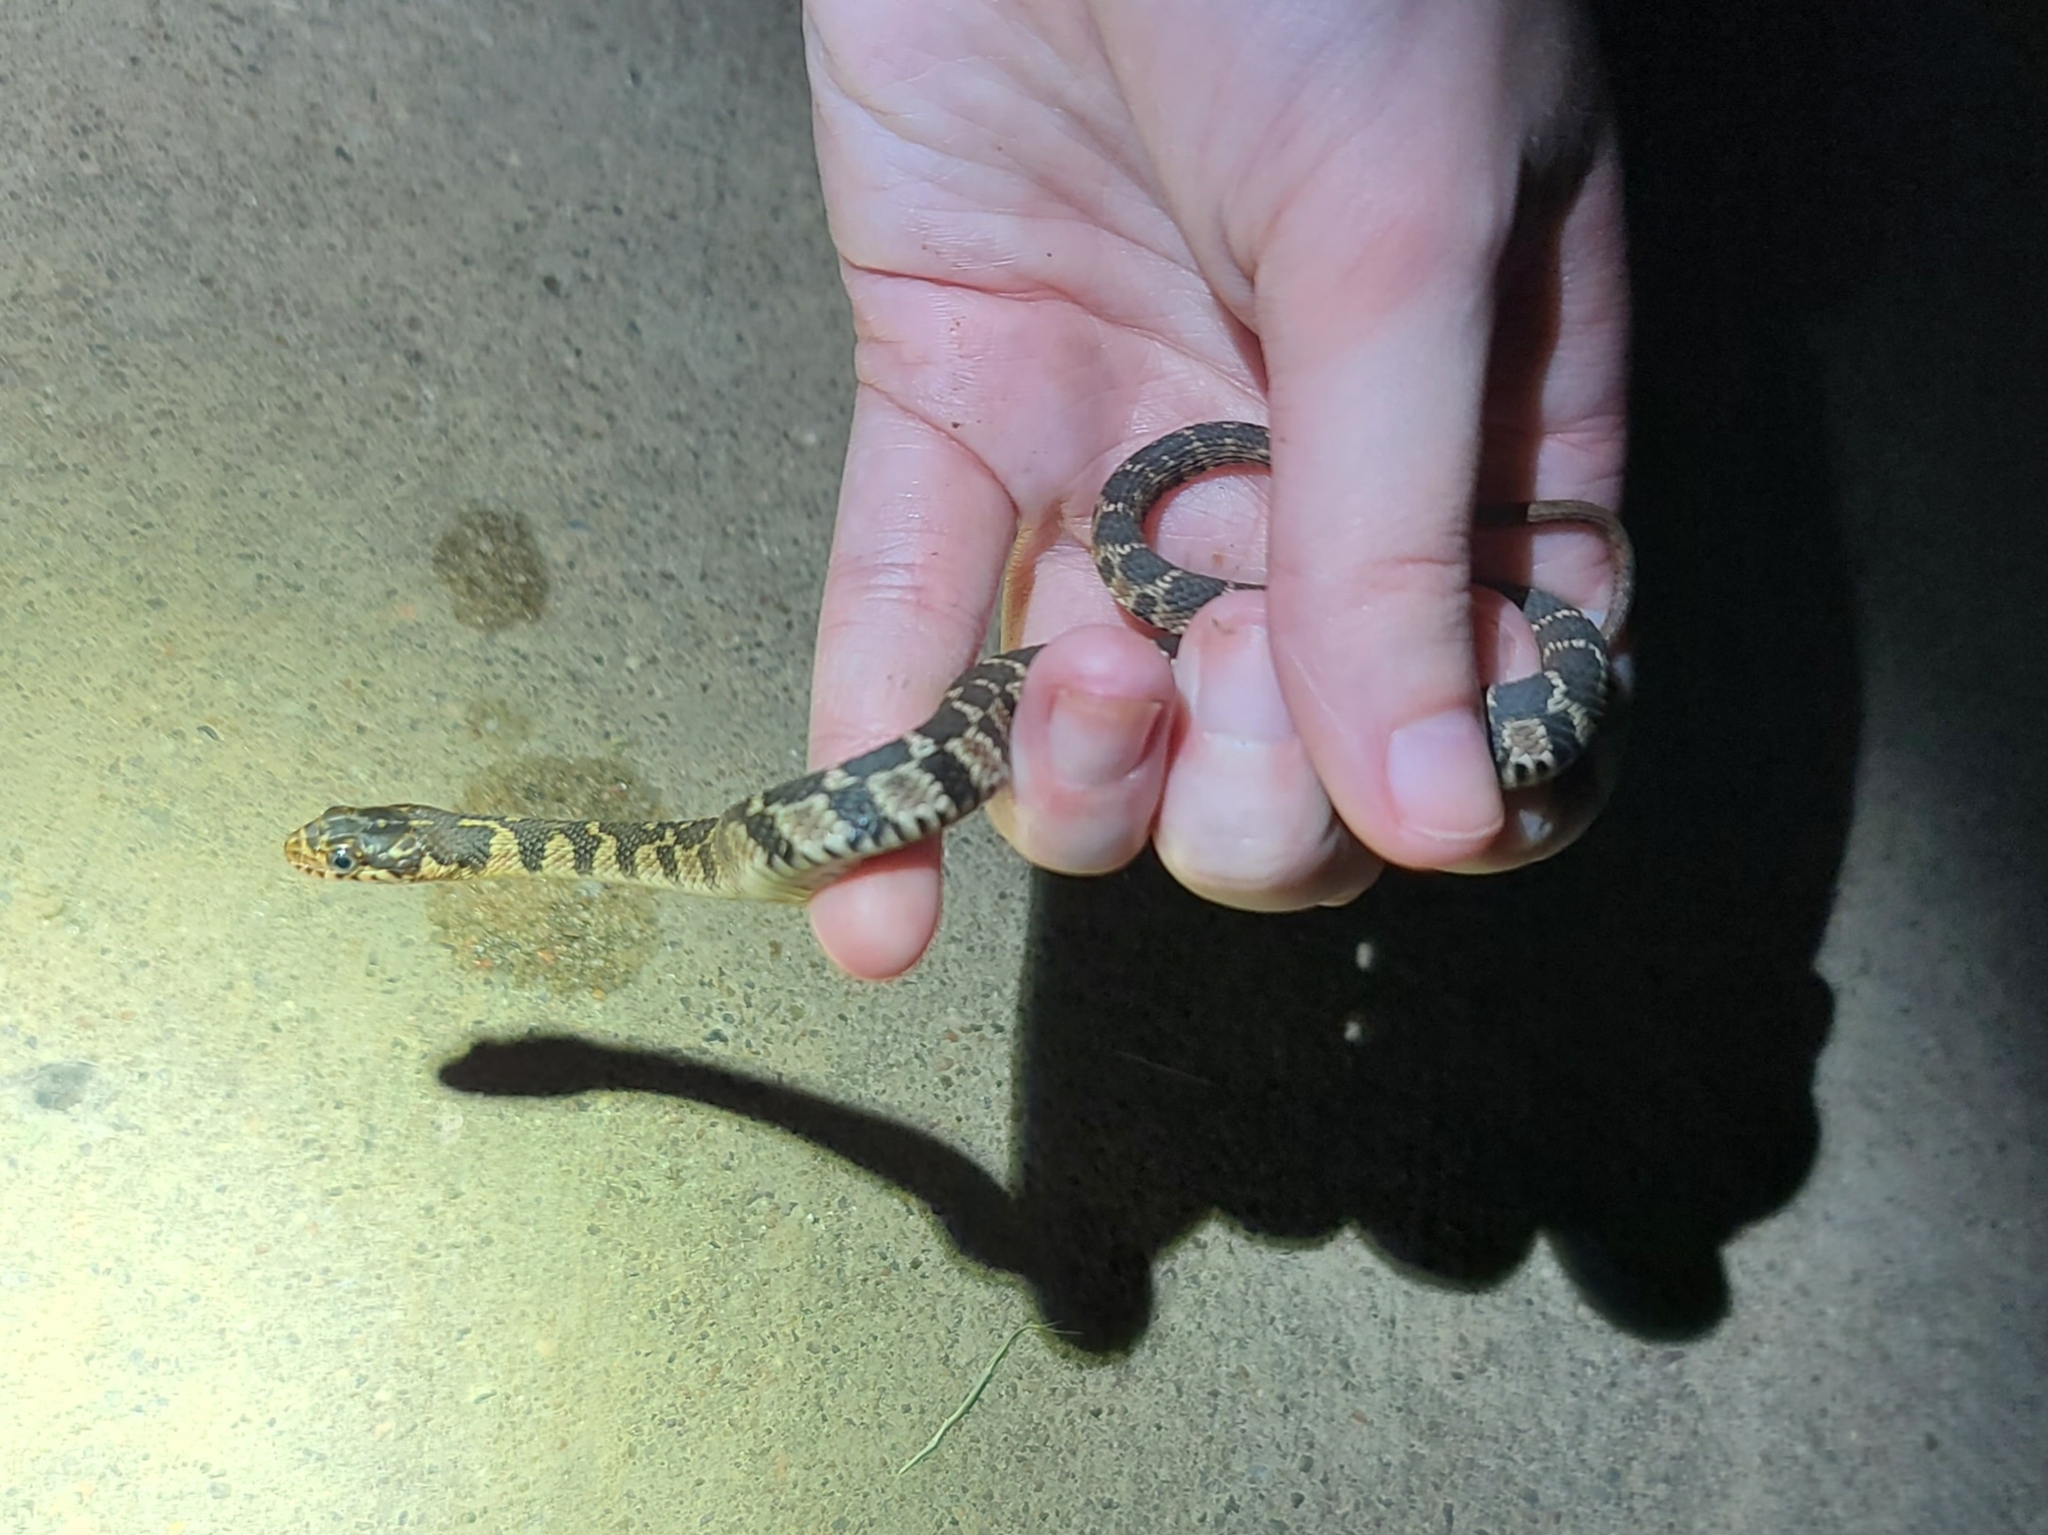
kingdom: Animalia
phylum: Chordata
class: Squamata
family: Colubridae
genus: Nerodia
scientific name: Nerodia erythrogaster
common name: Plainbelly water snake
